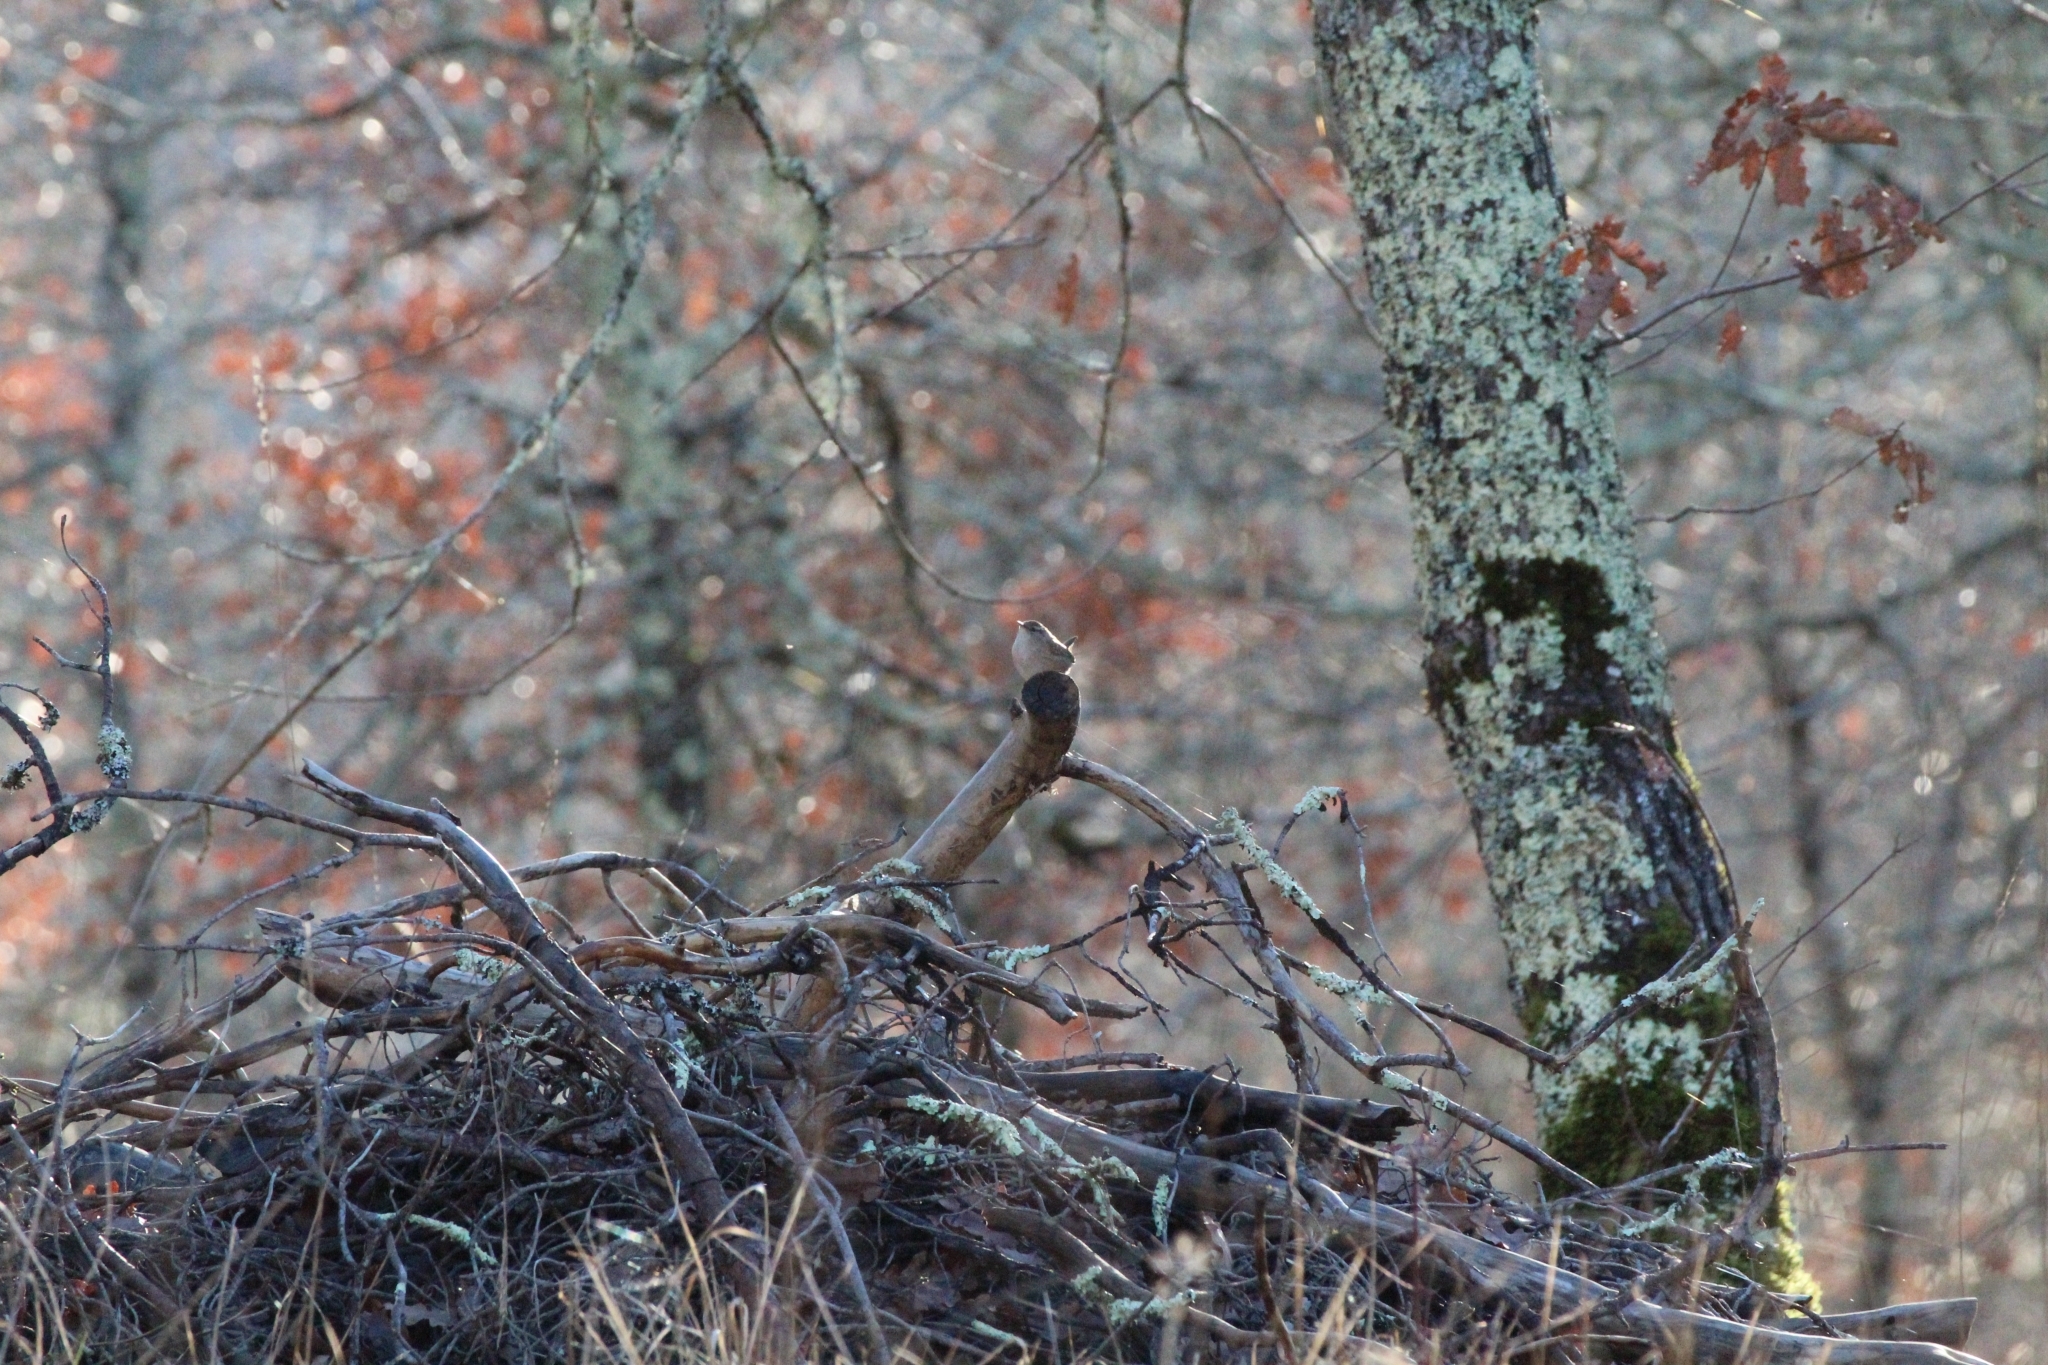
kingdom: Animalia
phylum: Chordata
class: Aves
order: Passeriformes
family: Troglodytidae
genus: Troglodytes
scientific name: Troglodytes troglodytes
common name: Eurasian wren
